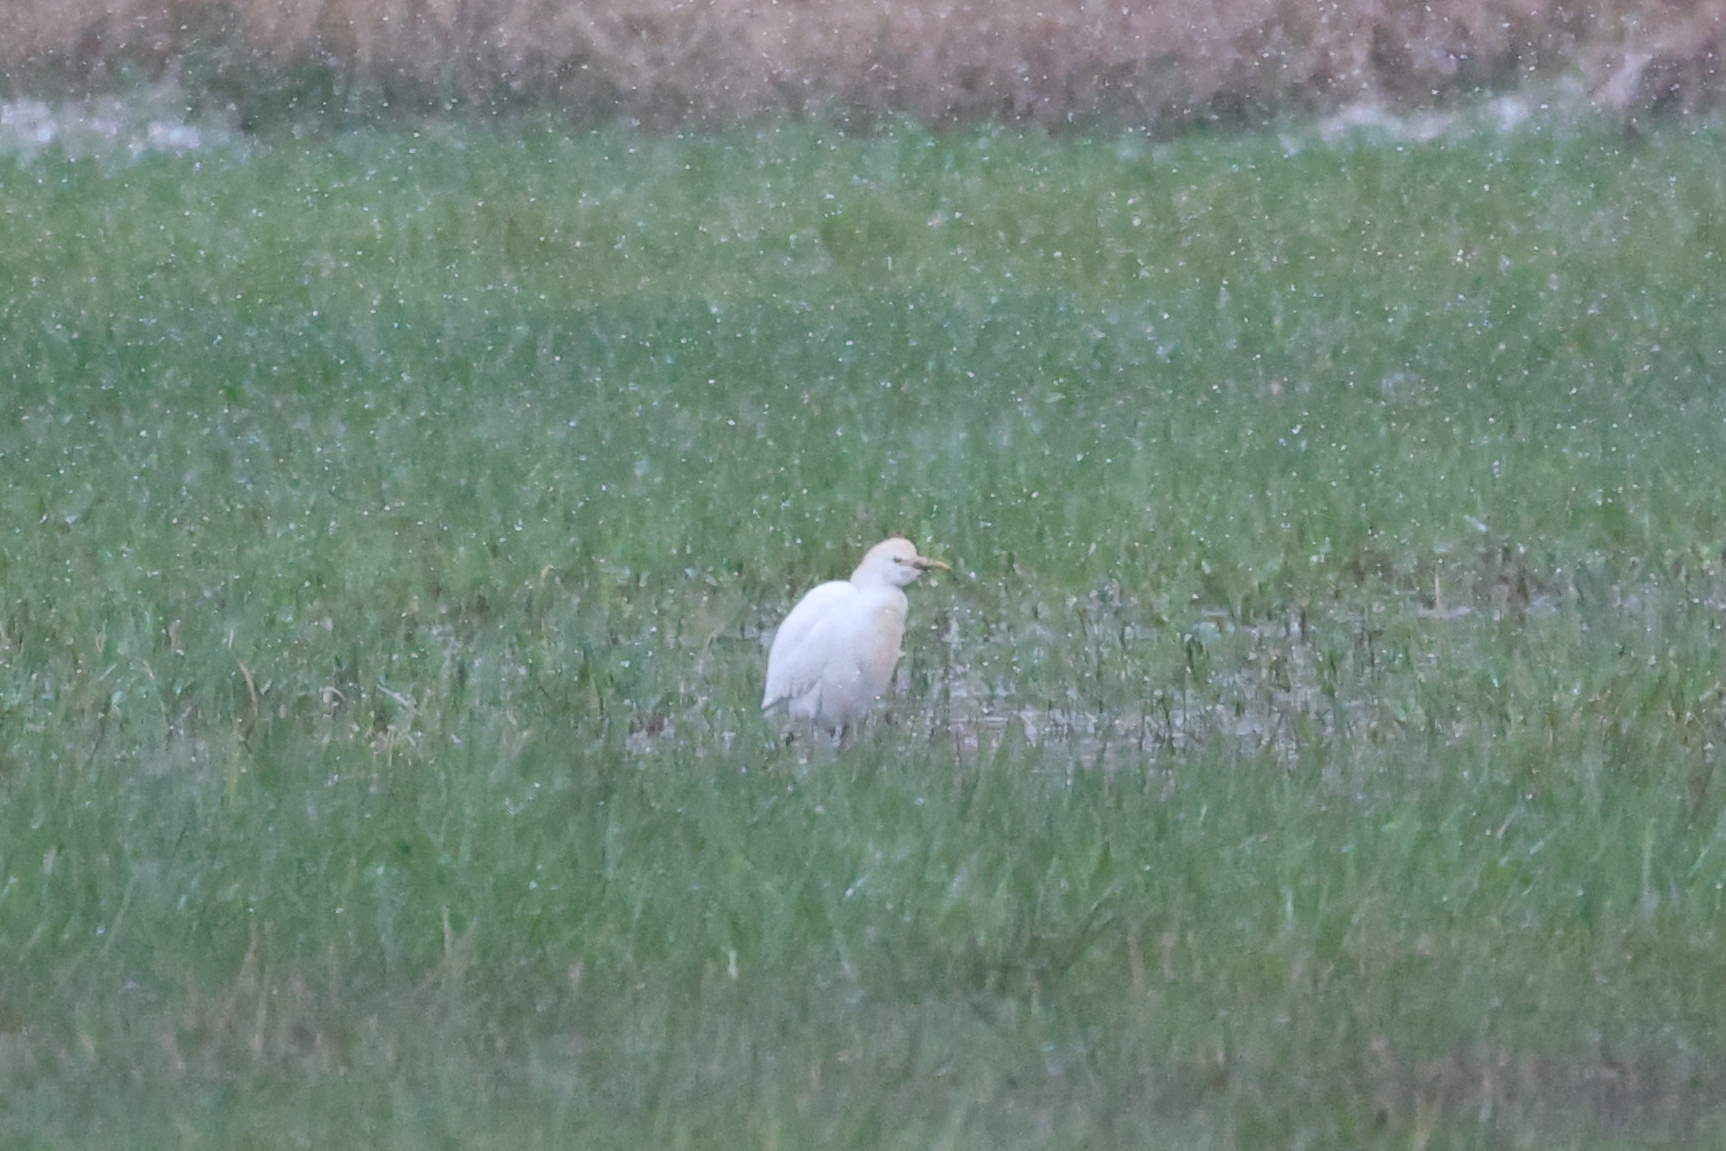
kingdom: Animalia
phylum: Chordata
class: Aves
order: Pelecaniformes
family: Ardeidae
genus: Bubulcus
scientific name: Bubulcus ibis
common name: Cattle egret
